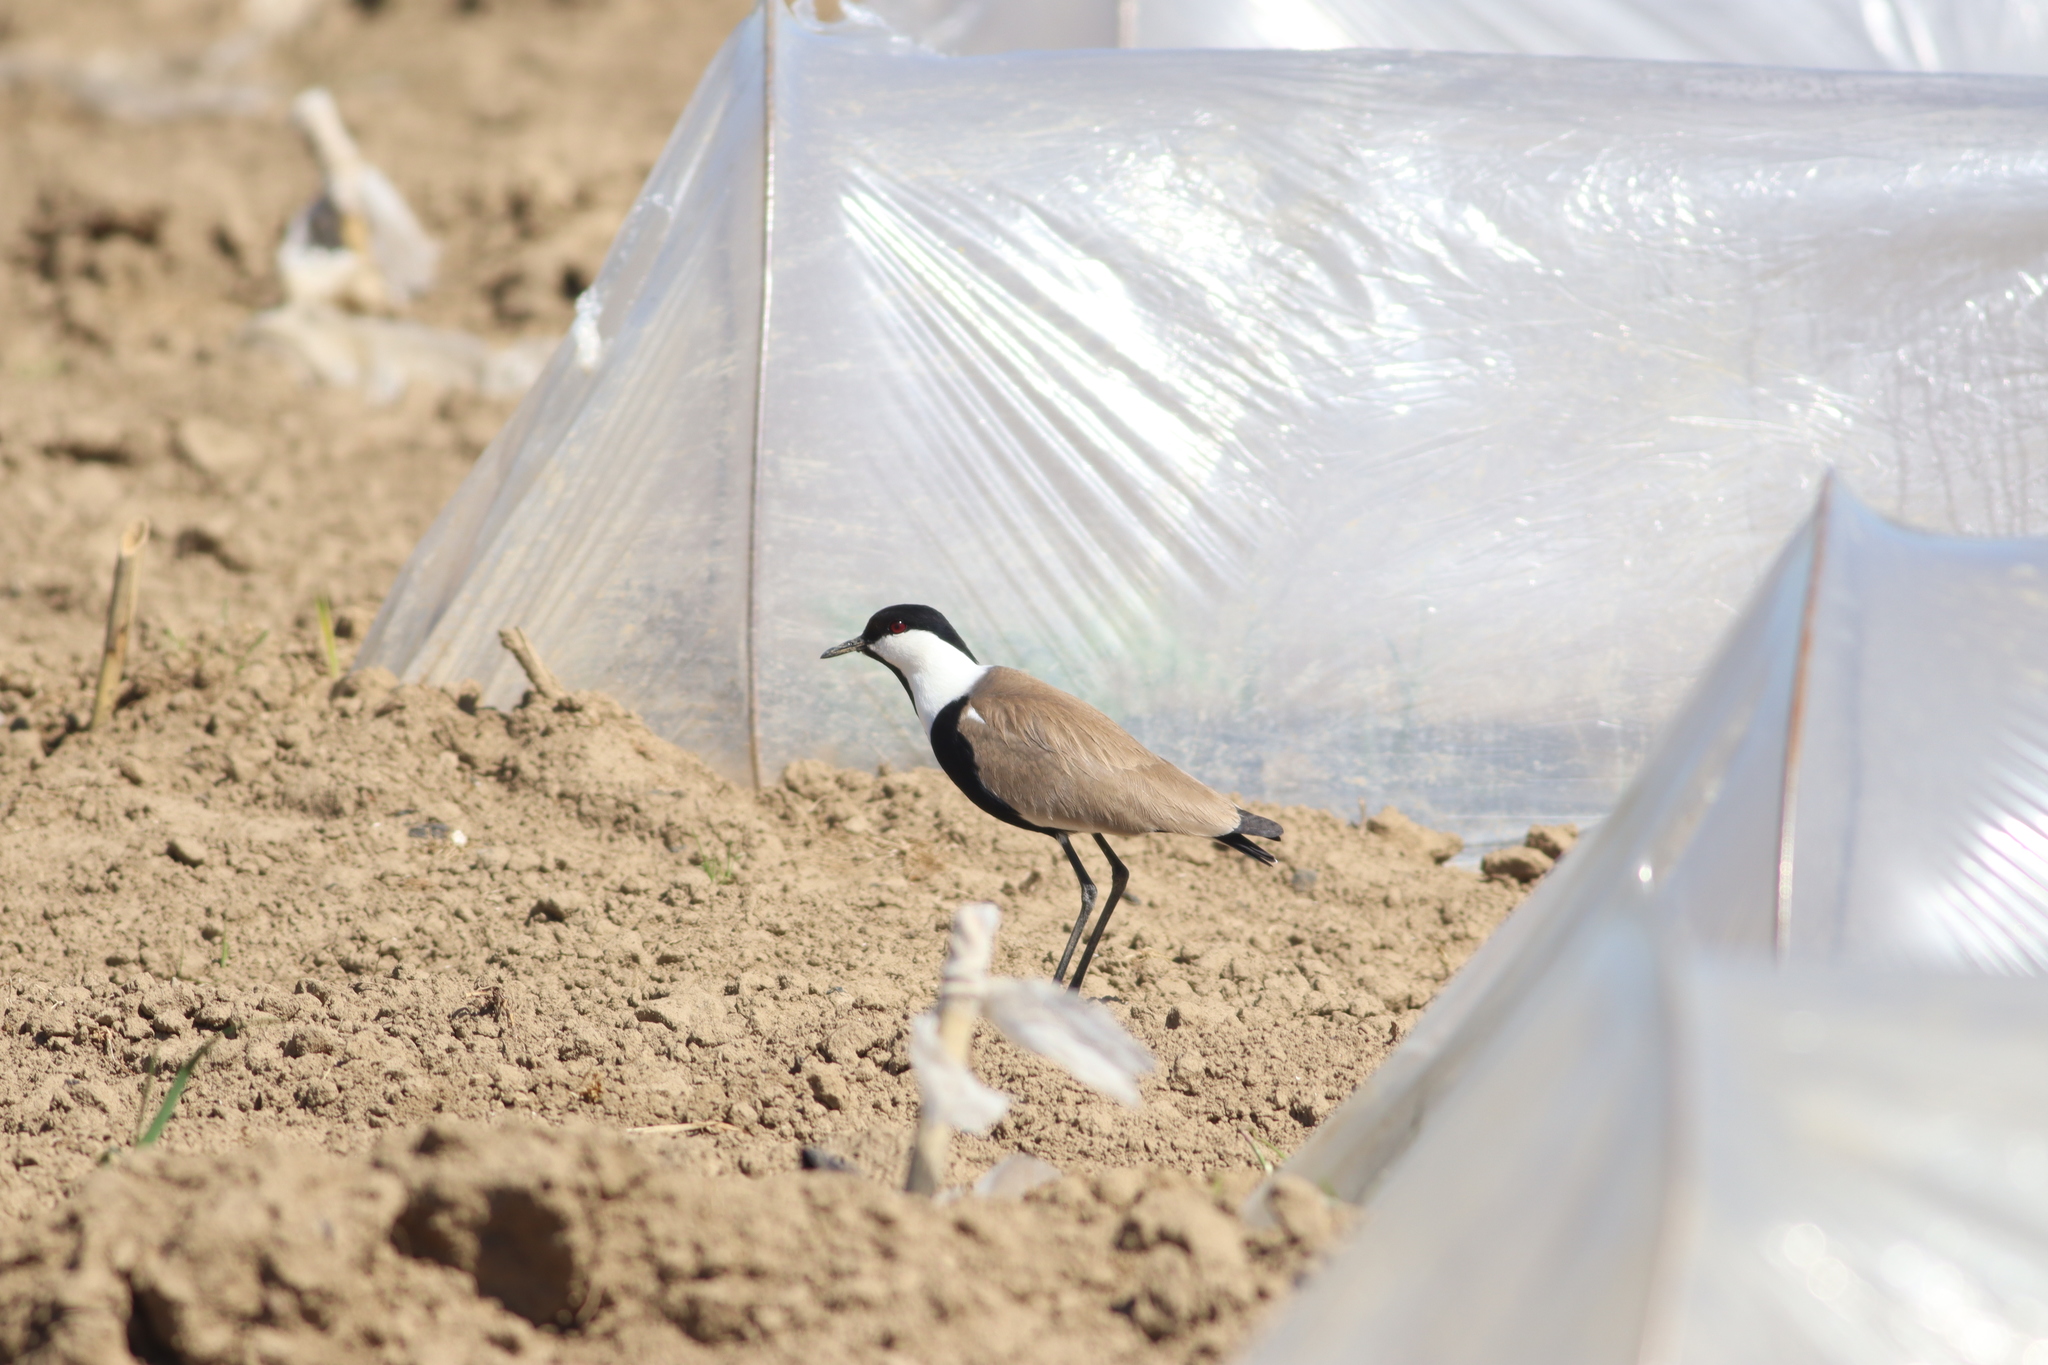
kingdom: Animalia
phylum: Chordata
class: Aves
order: Charadriiformes
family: Charadriidae
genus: Vanellus
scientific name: Vanellus spinosus
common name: Spur-winged lapwing
